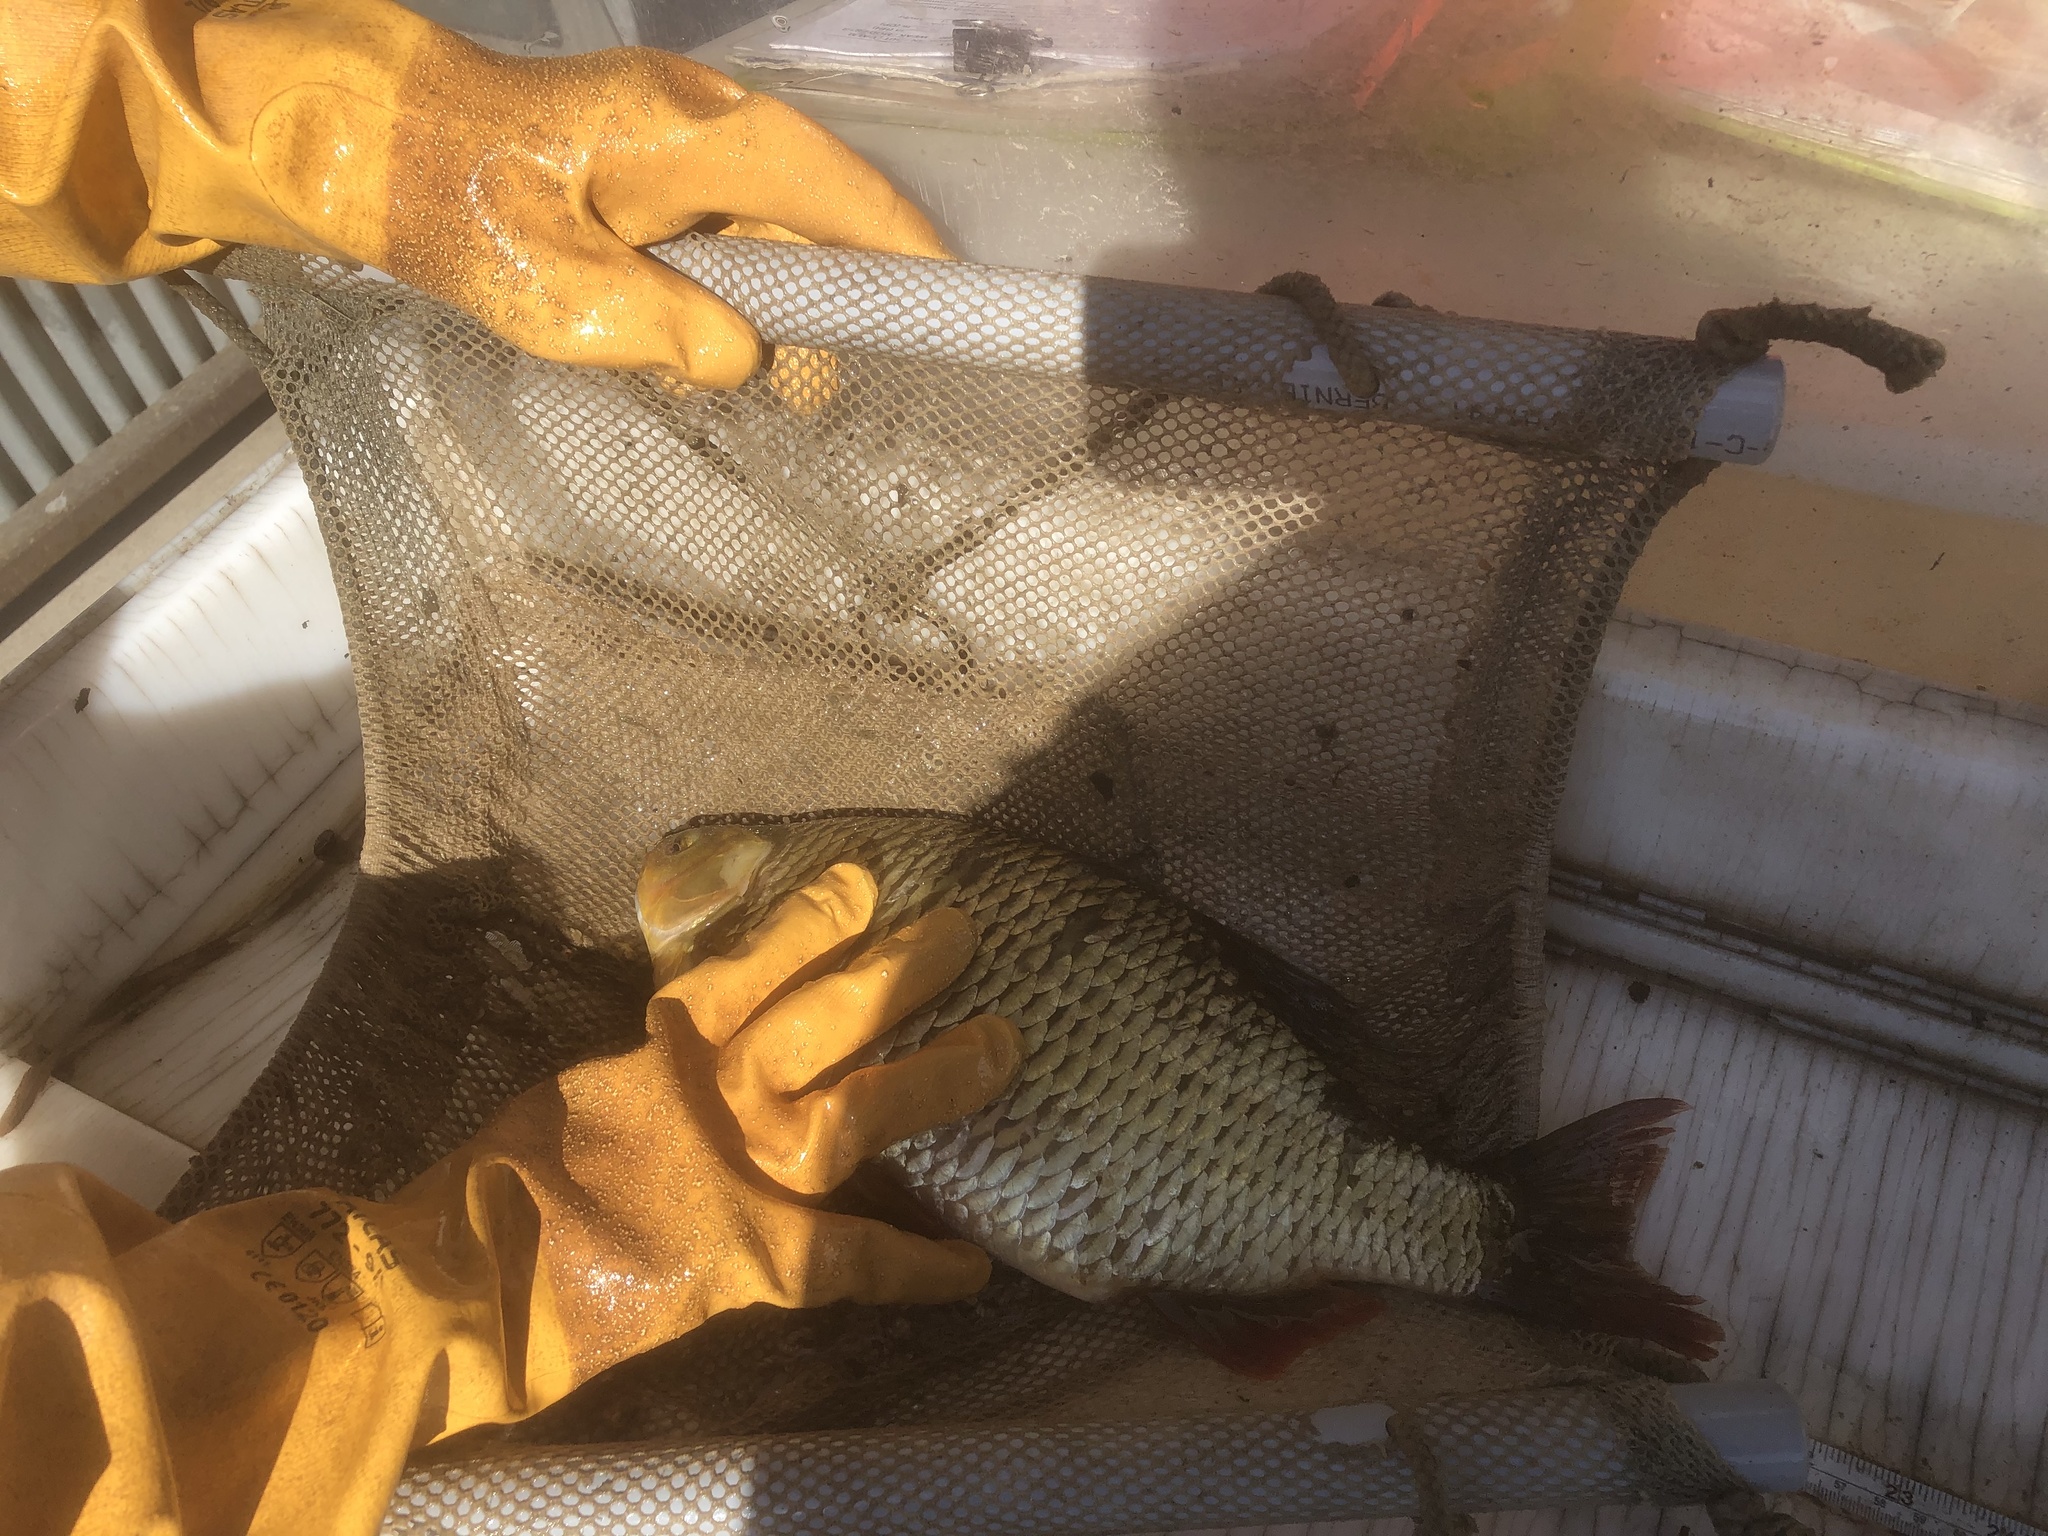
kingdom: Animalia
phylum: Chordata
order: Cypriniformes
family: Cyprinidae
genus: Scardinius
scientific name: Scardinius erythrophthalmus
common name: Rudd
